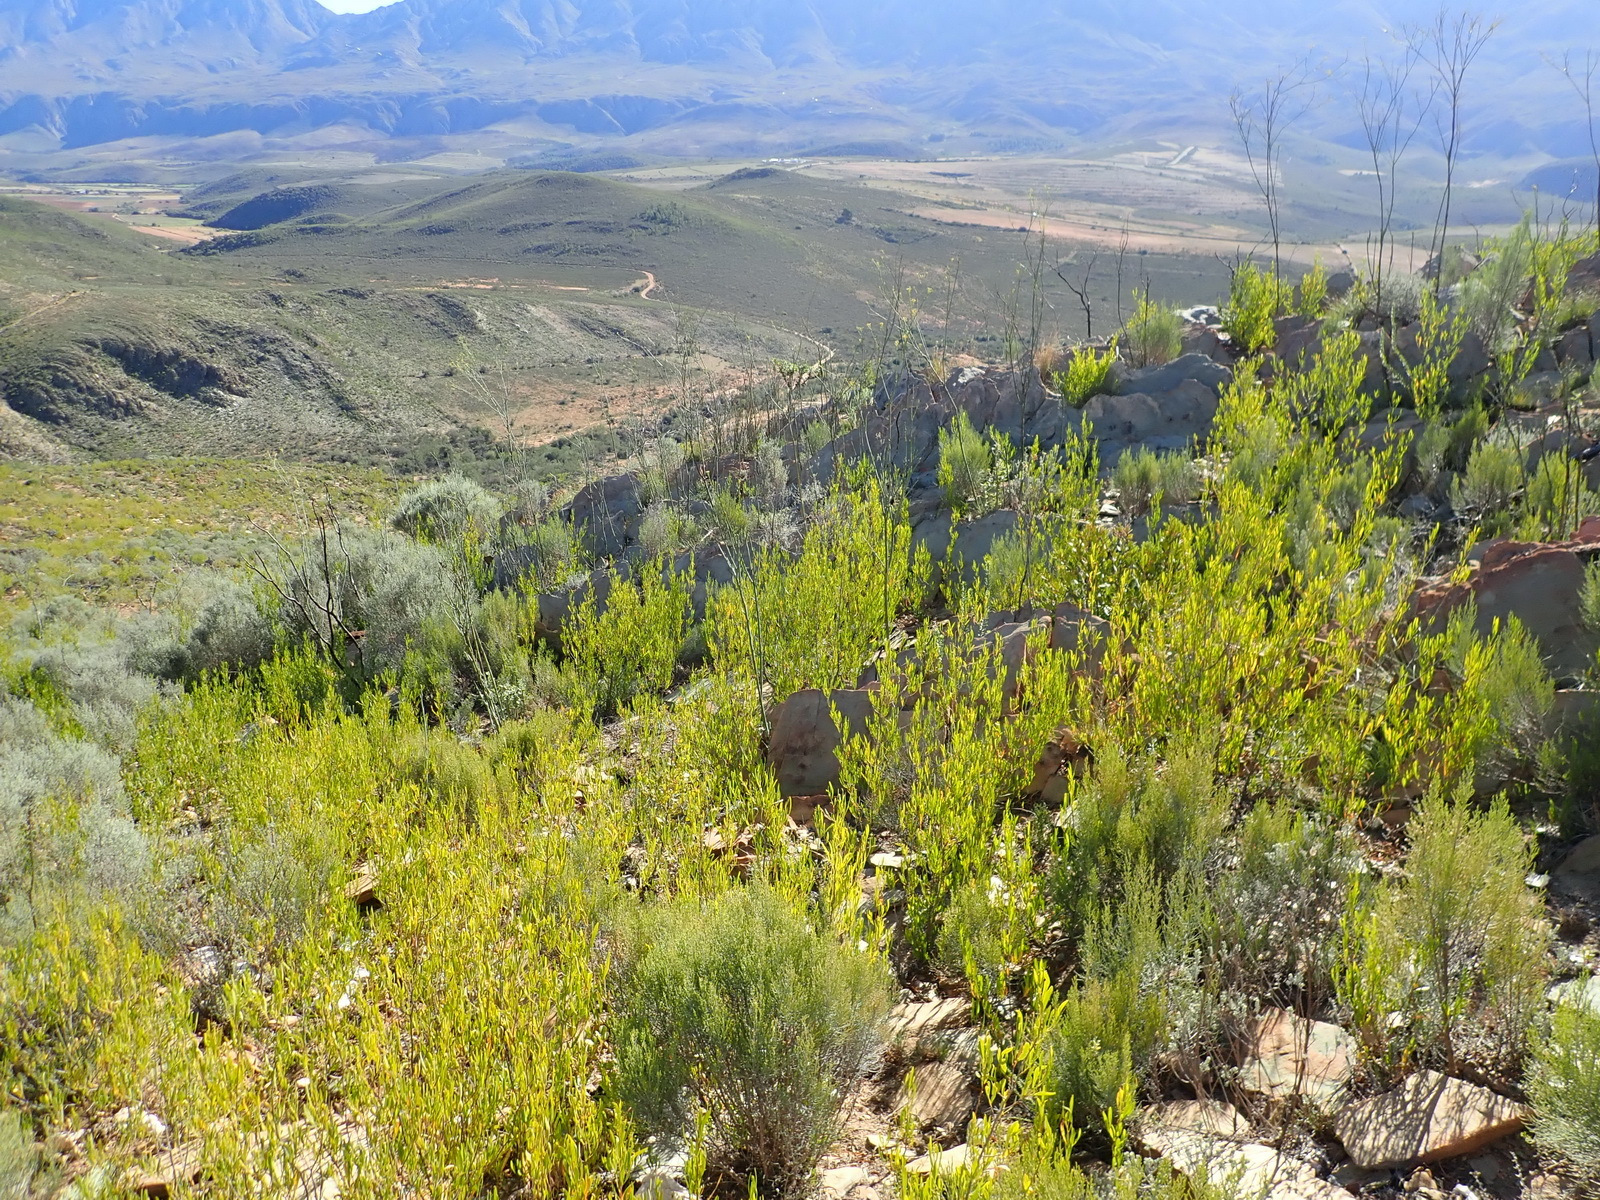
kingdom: Plantae
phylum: Tracheophyta
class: Magnoliopsida
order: Sapindales
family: Sapindaceae
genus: Dodonaea
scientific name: Dodonaea viscosa
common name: Hopbush
